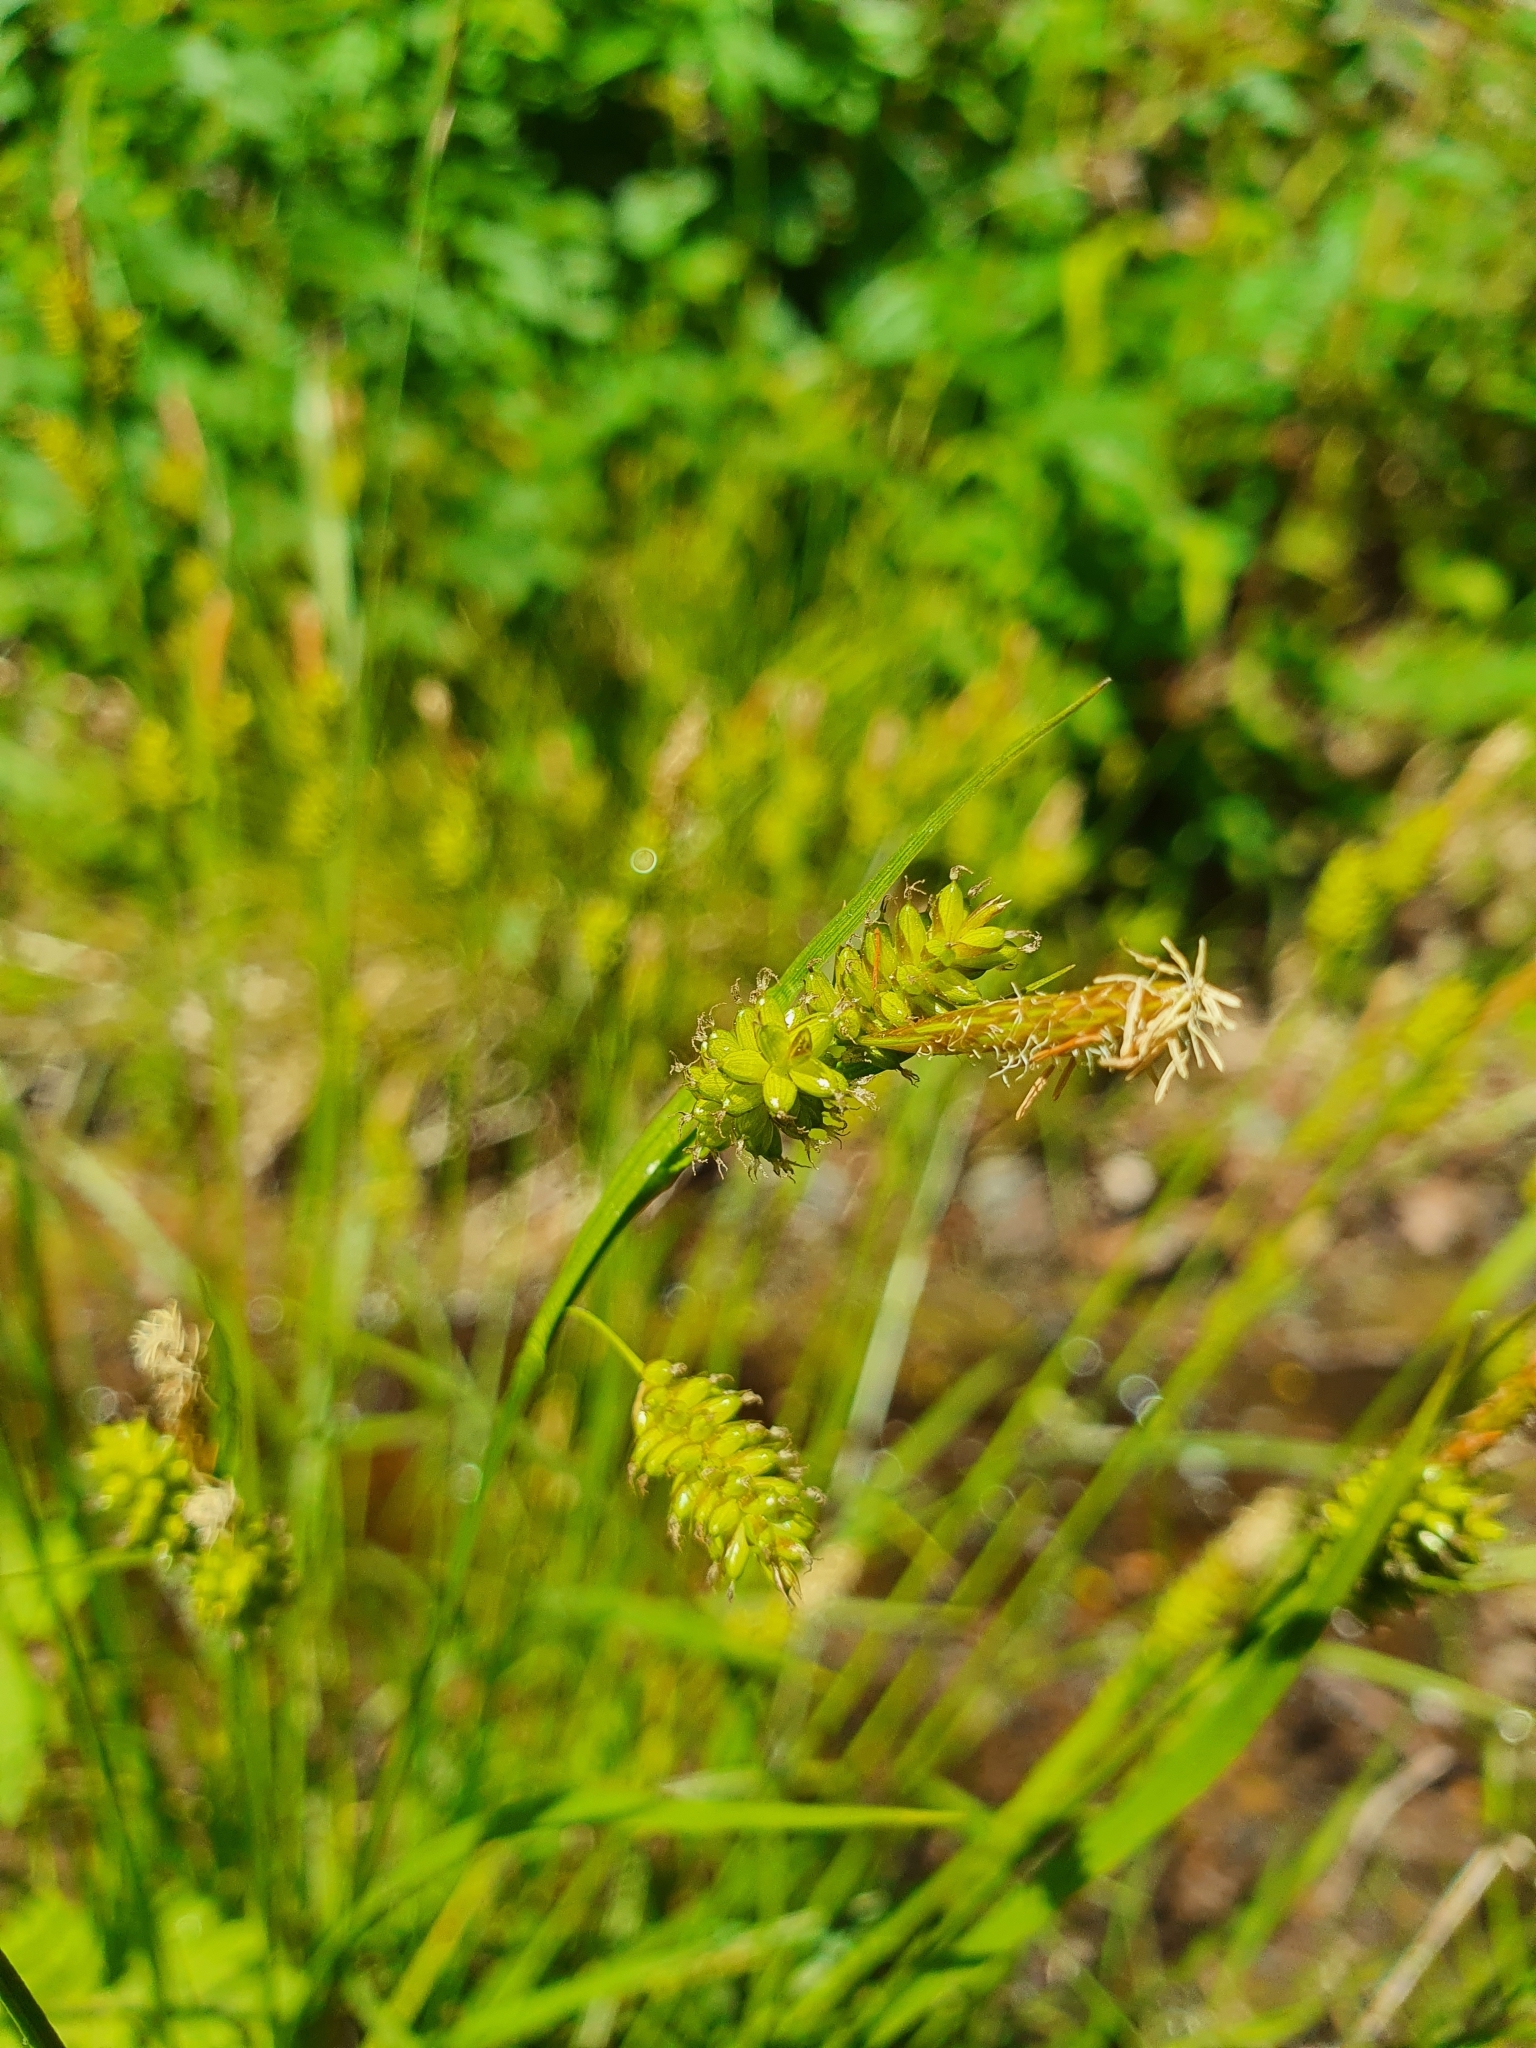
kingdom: Plantae
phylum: Tracheophyta
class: Liliopsida
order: Poales
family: Cyperaceae
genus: Carex
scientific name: Carex pallescens
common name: Pale sedge
